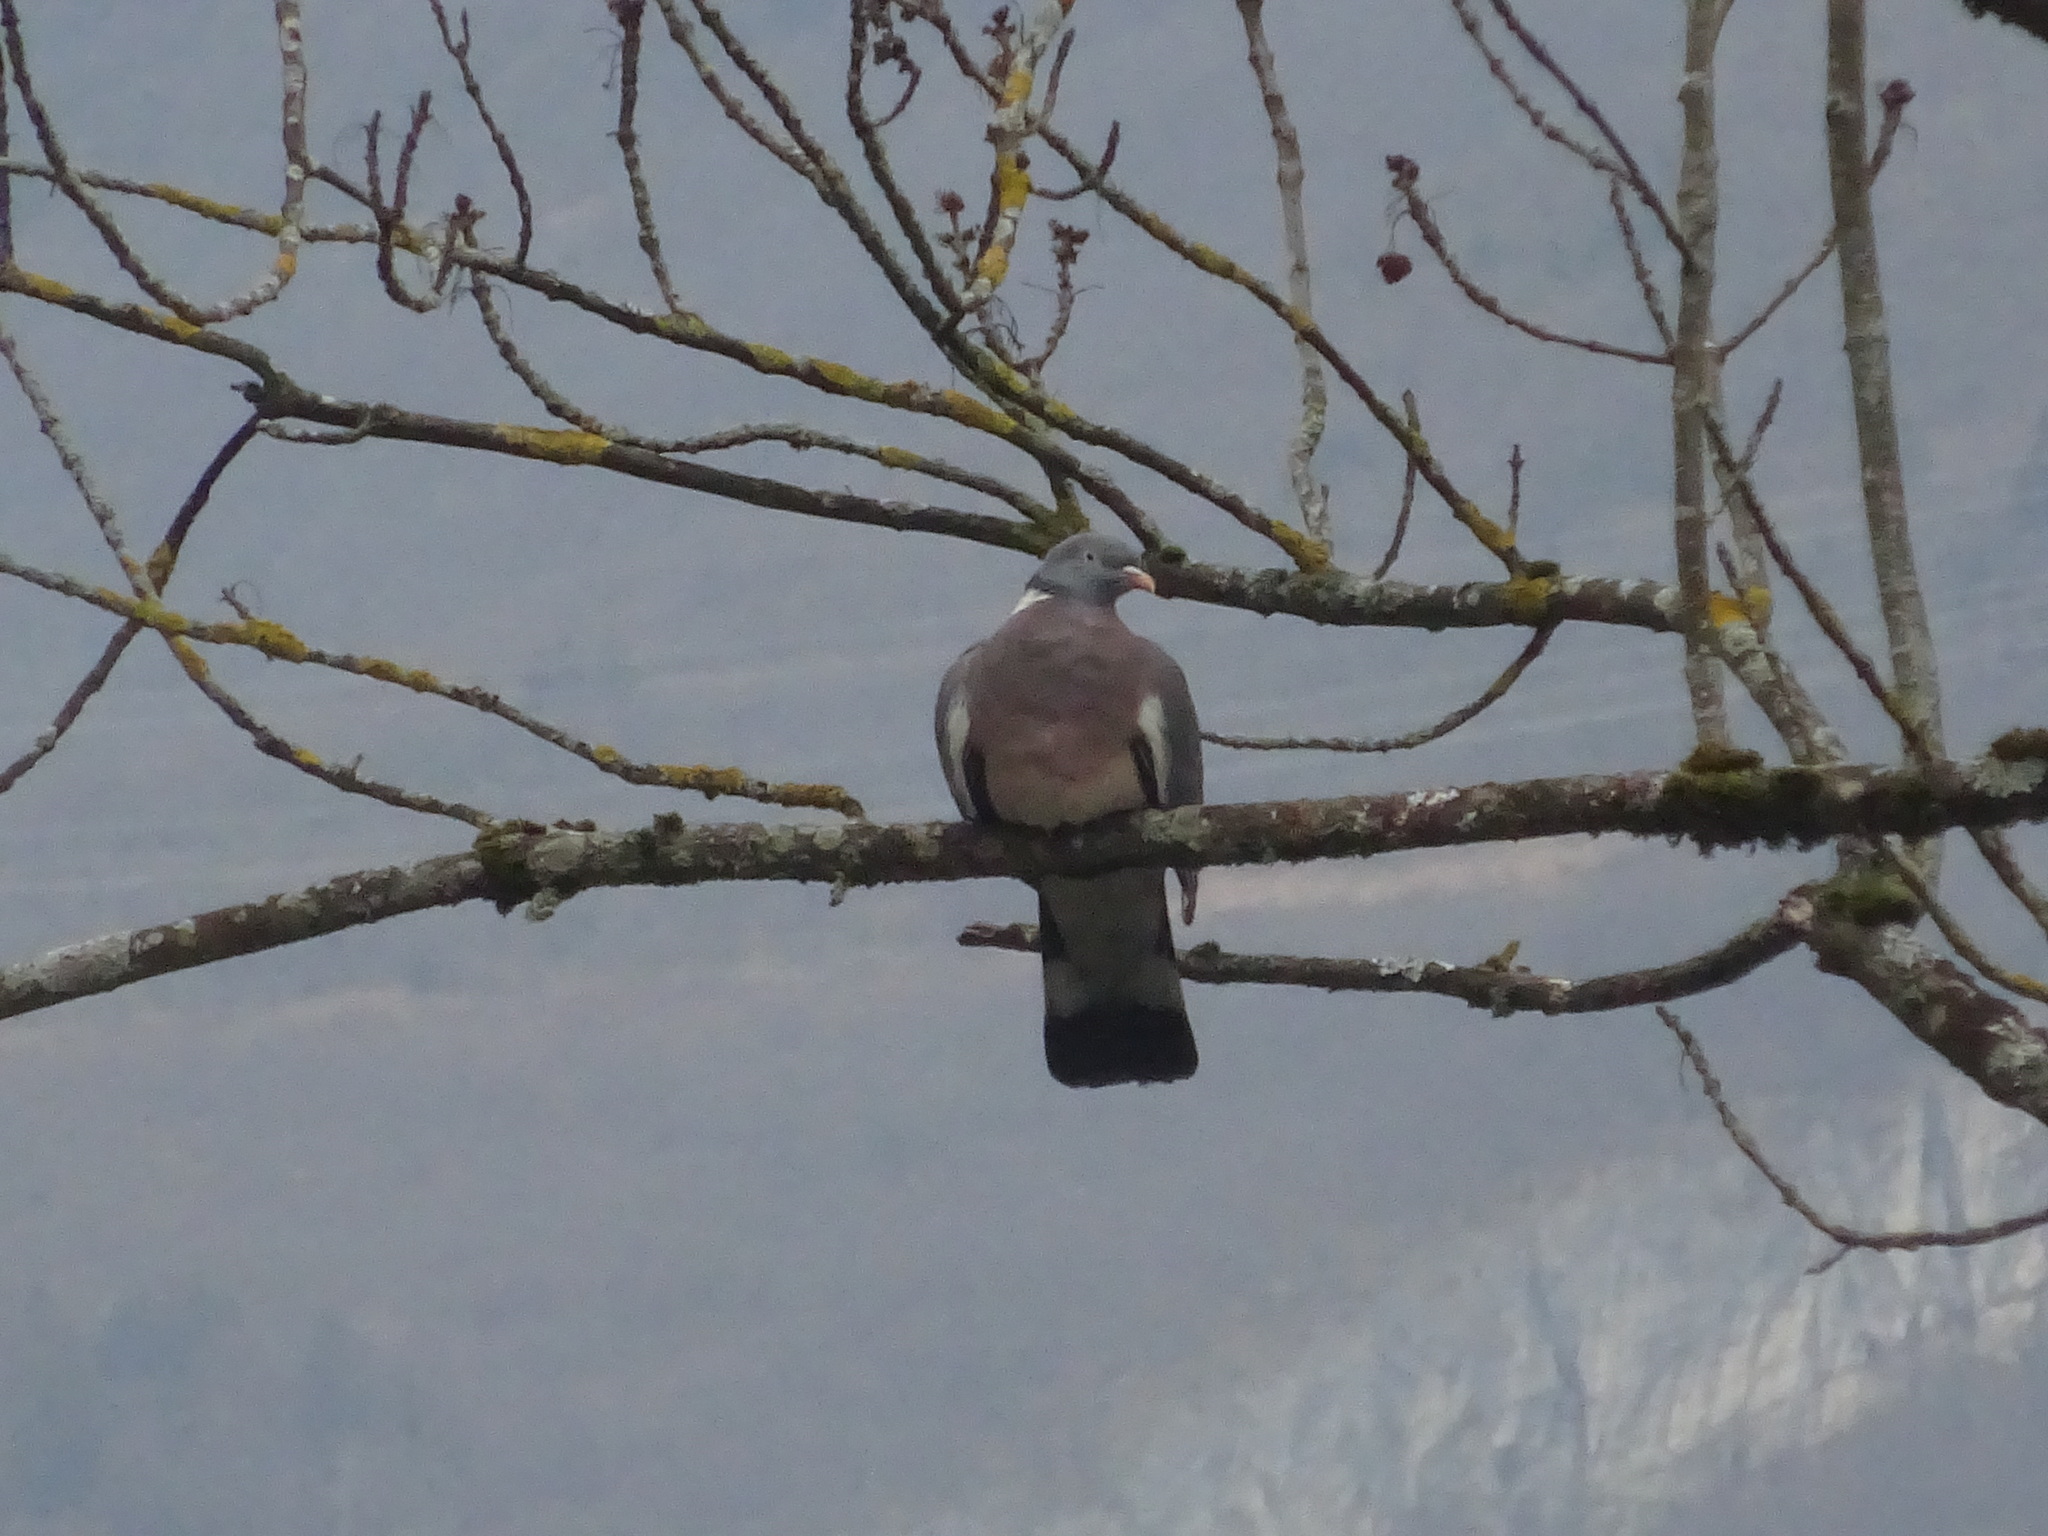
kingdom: Animalia
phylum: Chordata
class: Aves
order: Columbiformes
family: Columbidae
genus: Columba
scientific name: Columba palumbus
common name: Common wood pigeon
